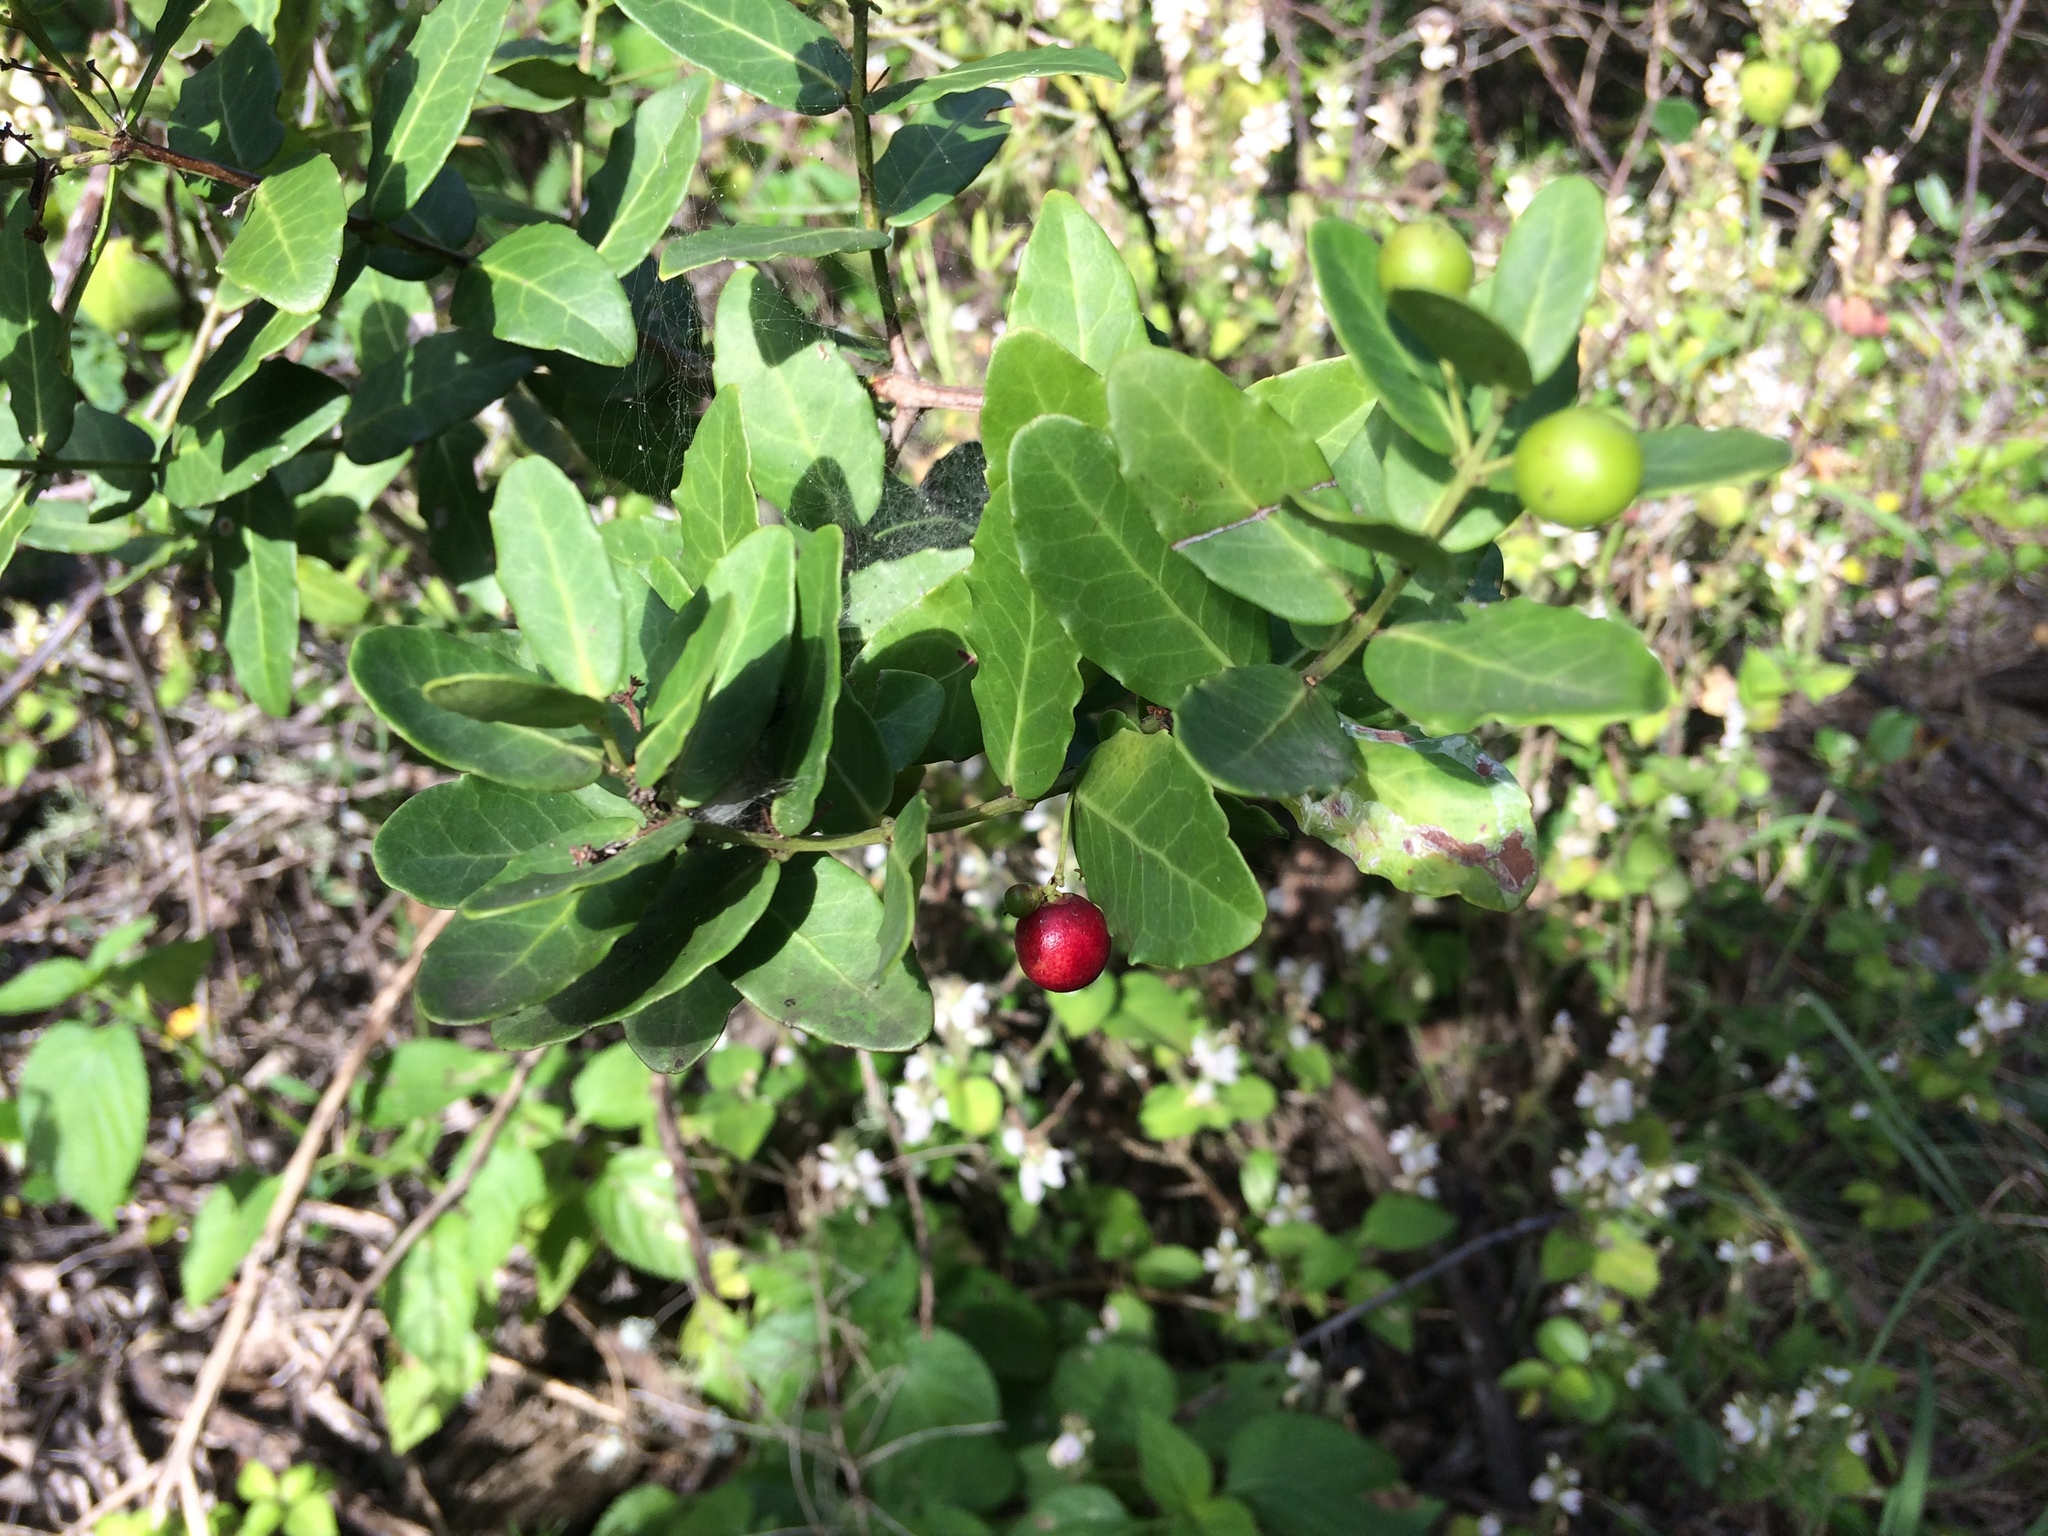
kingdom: Plantae
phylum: Tracheophyta
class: Magnoliopsida
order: Celastrales
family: Celastraceae
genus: Lauridia
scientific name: Lauridia tetragona
